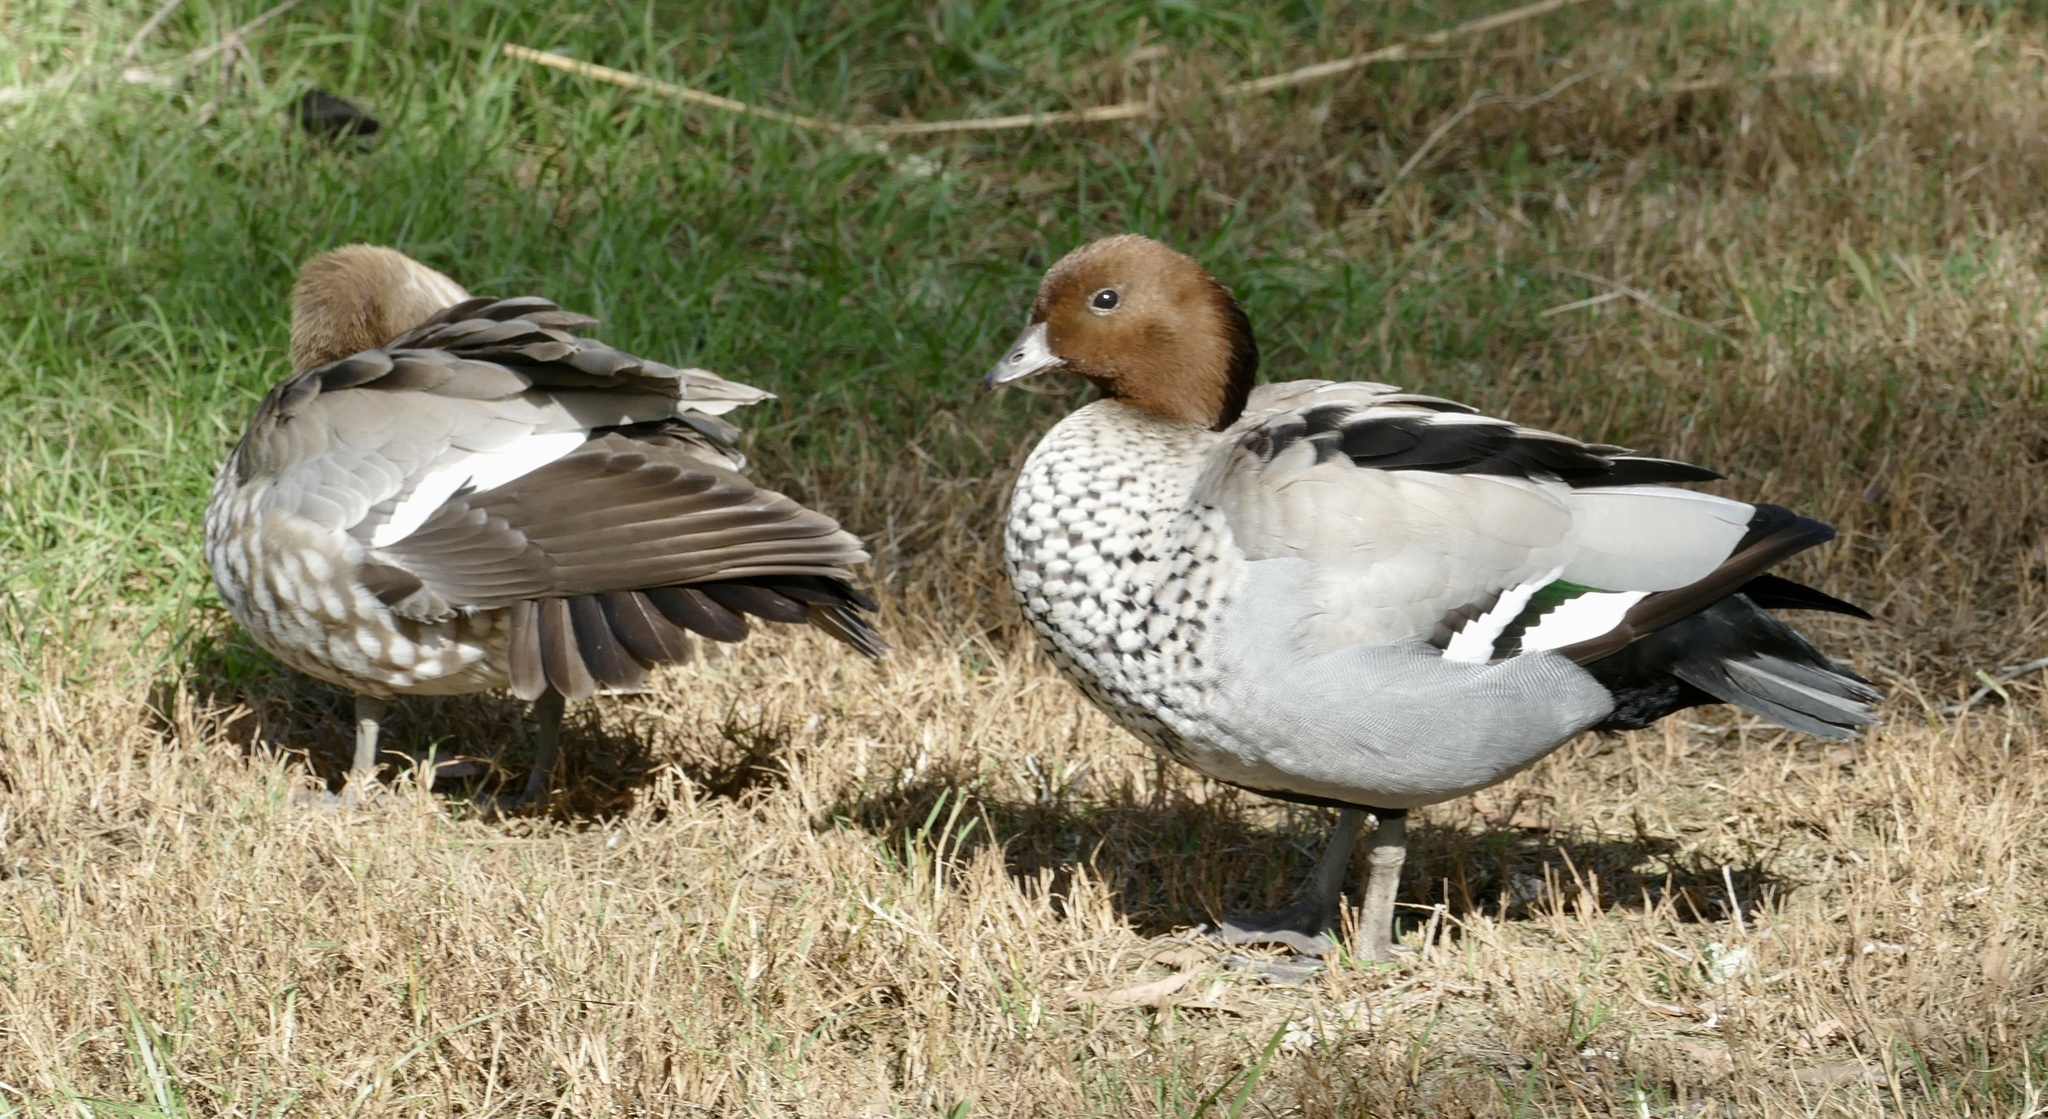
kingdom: Animalia
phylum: Chordata
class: Aves
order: Anseriformes
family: Anatidae
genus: Chenonetta
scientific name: Chenonetta jubata
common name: Maned duck
